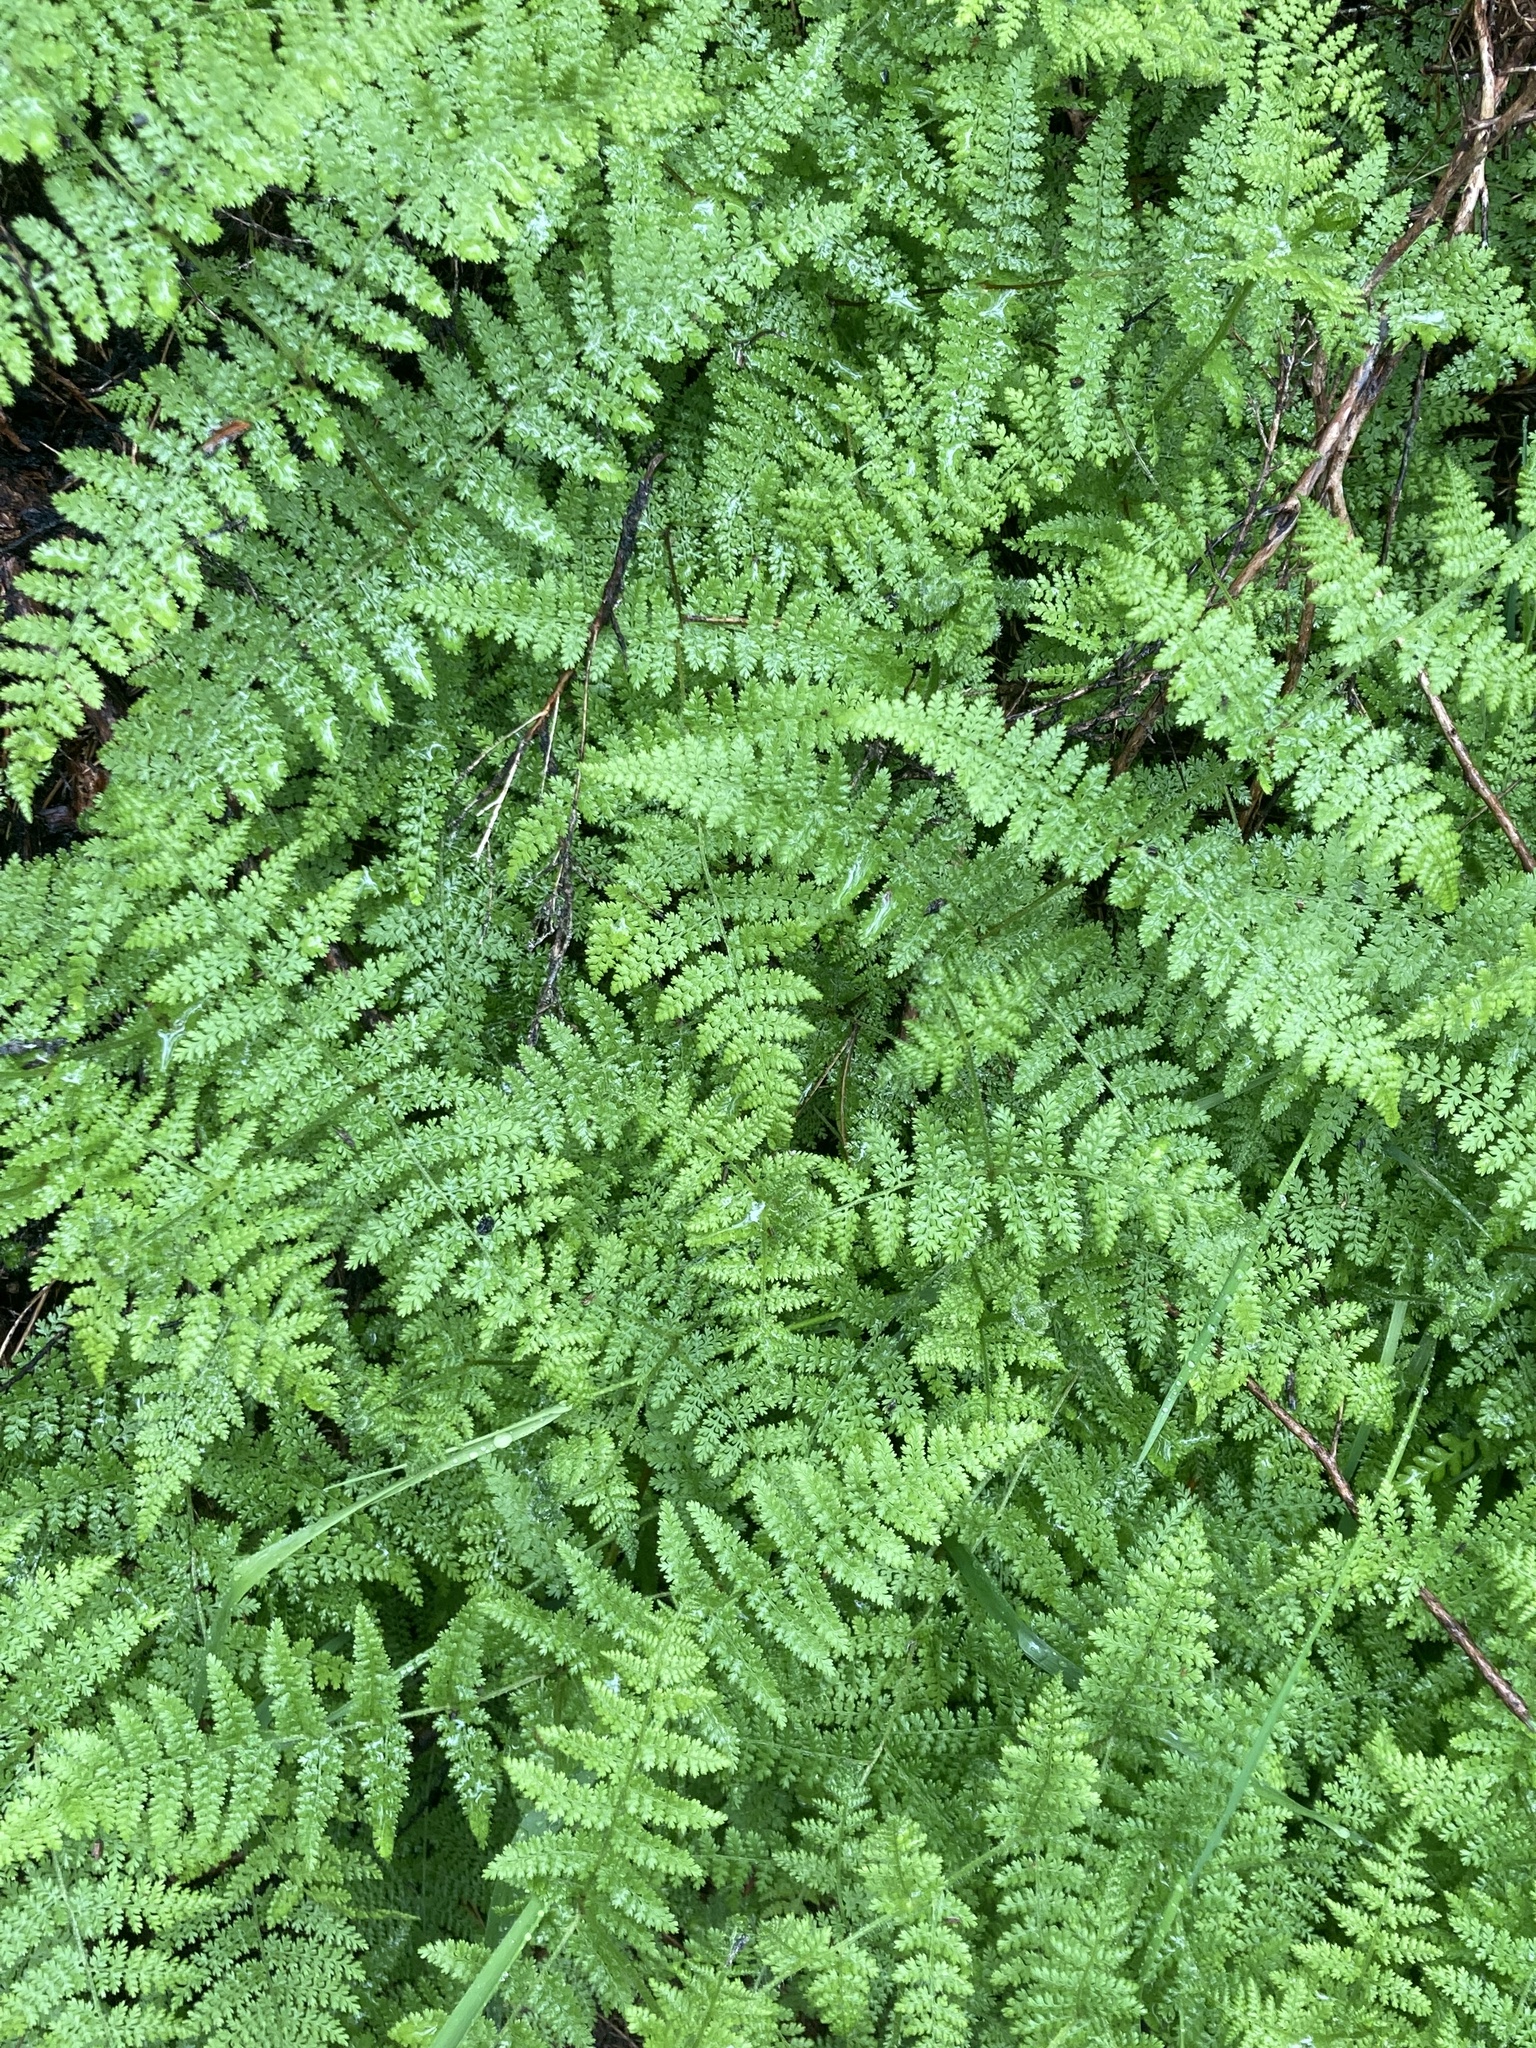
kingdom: Plantae
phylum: Tracheophyta
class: Polypodiopsida
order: Polypodiales
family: Dennstaedtiaceae
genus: Hypolepis
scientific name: Hypolepis millefolium
